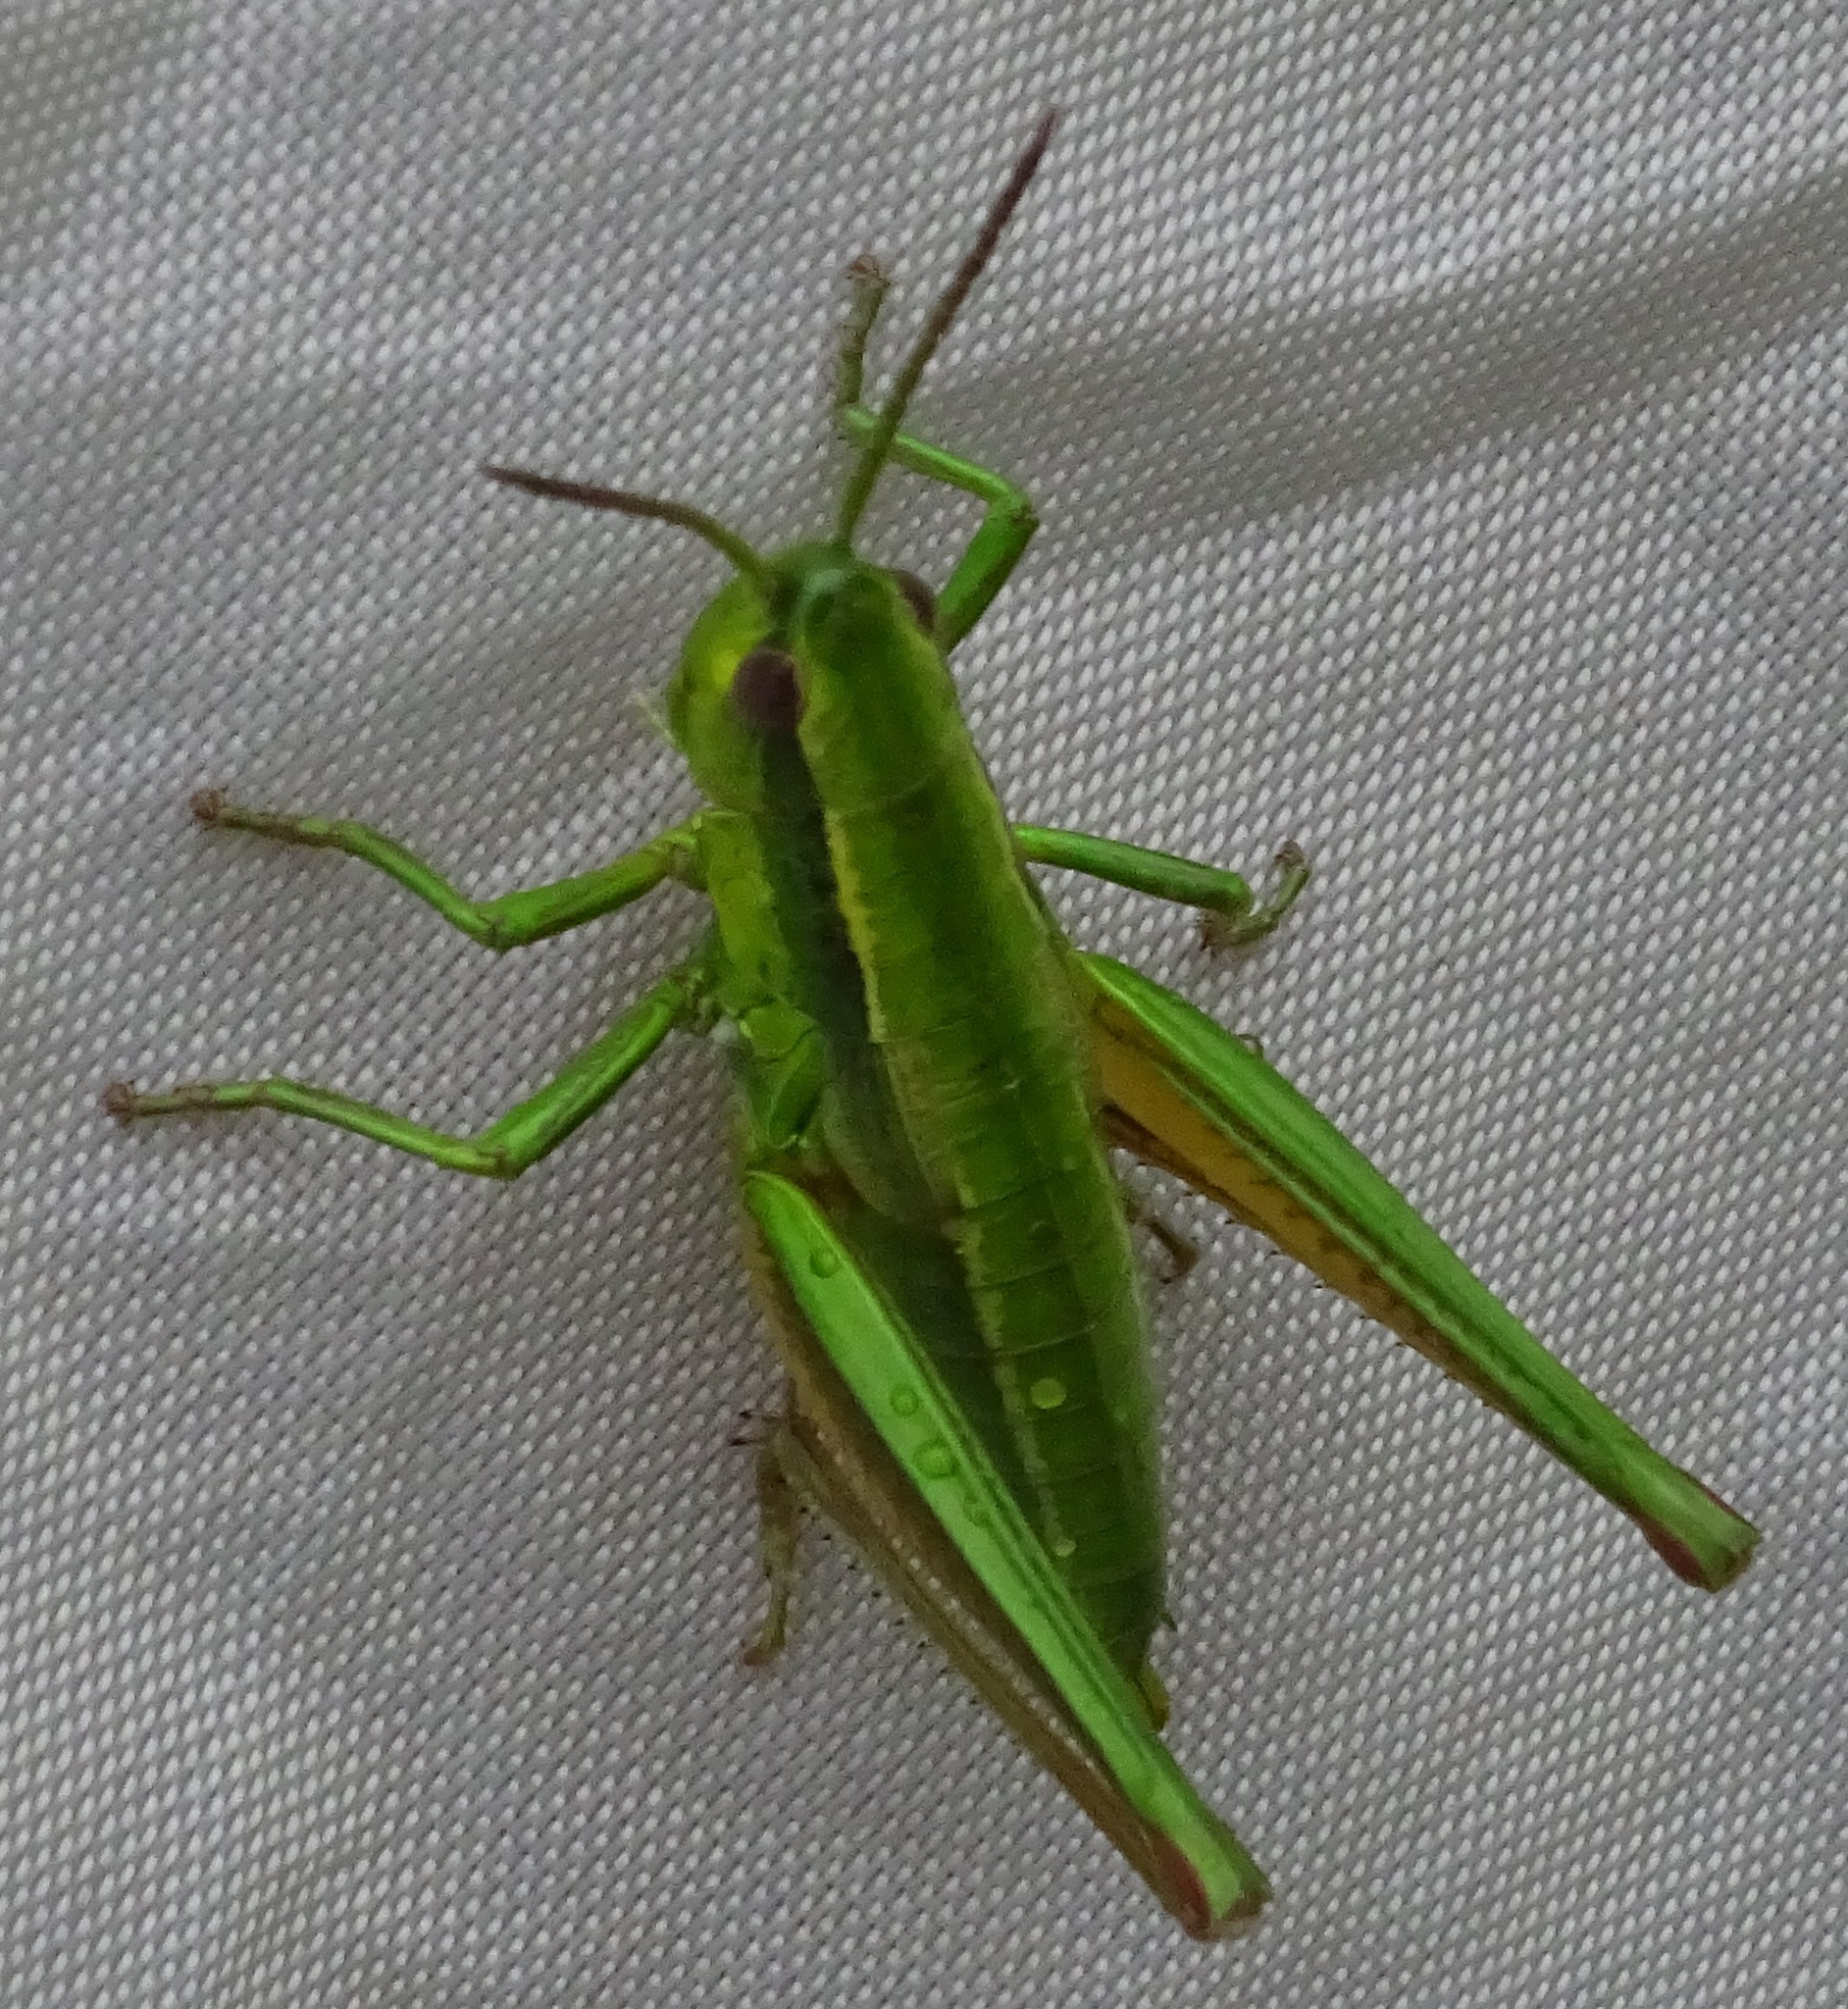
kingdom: Animalia
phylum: Arthropoda
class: Insecta
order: Orthoptera
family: Acrididae
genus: Euthystira
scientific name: Euthystira brachyptera
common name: Small gold grasshopper
